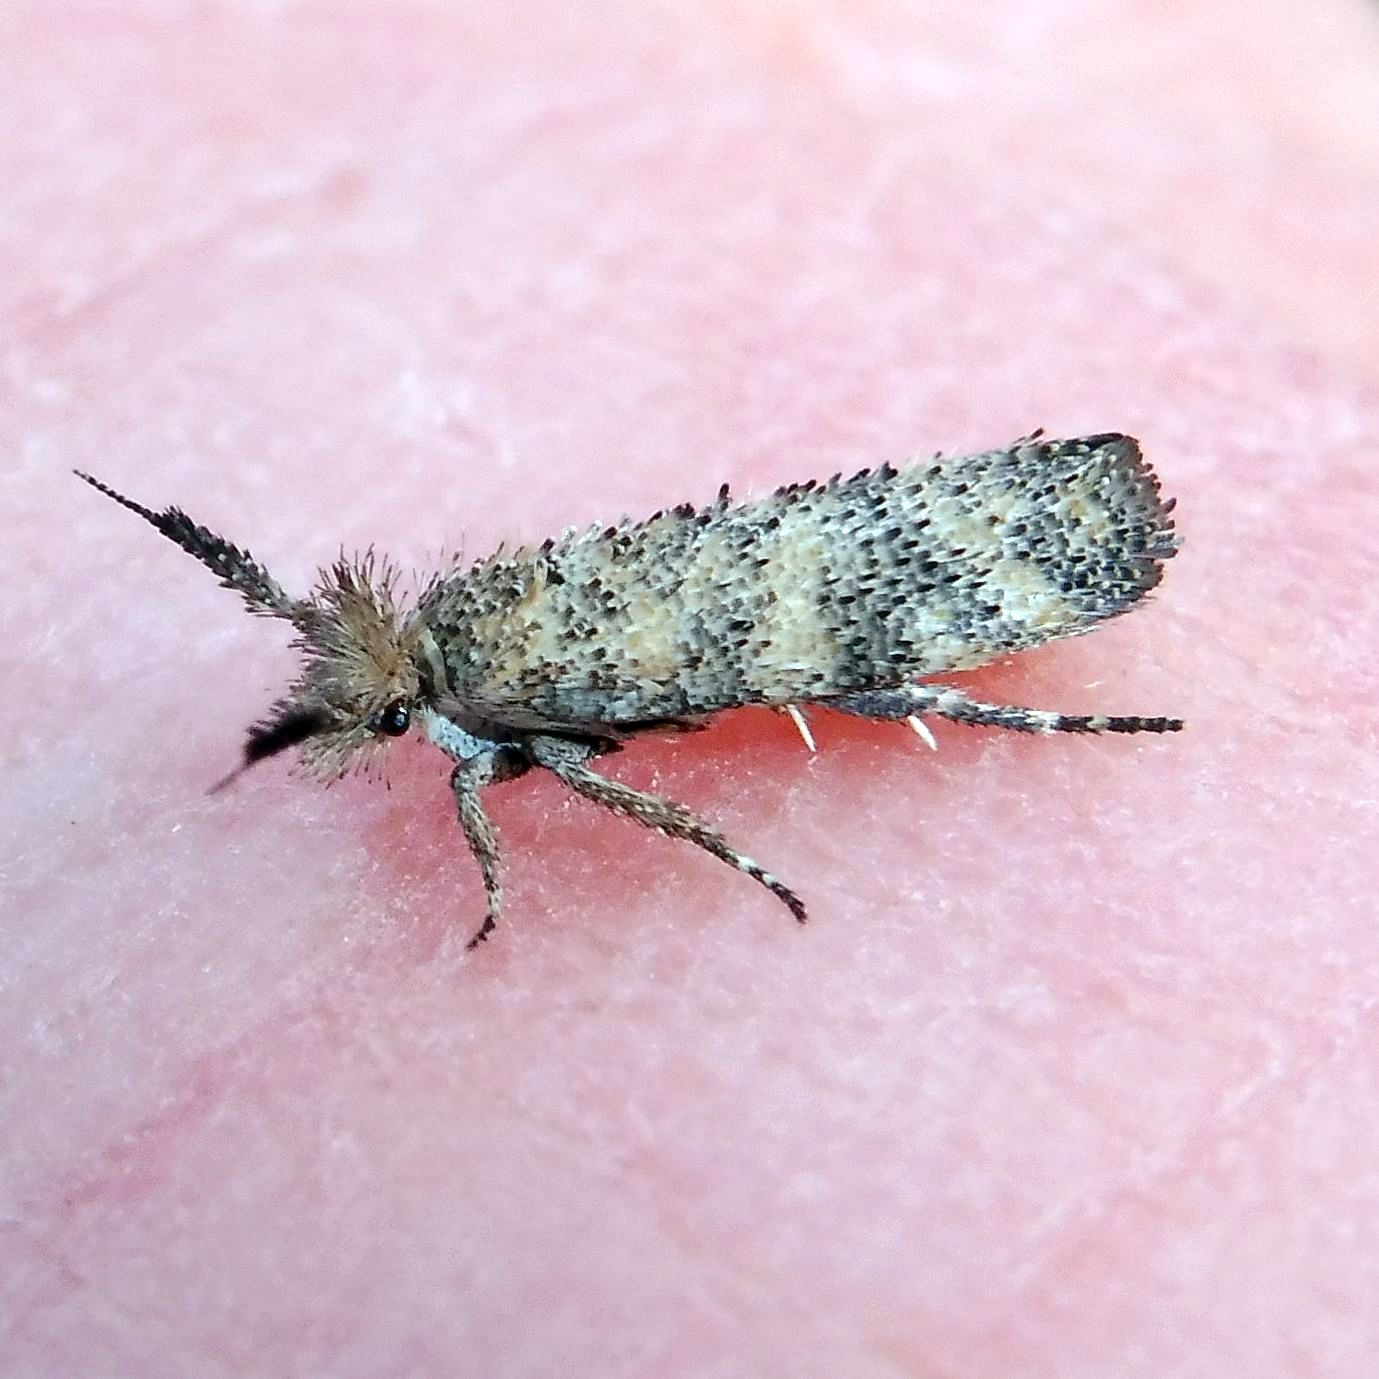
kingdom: Animalia
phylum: Arthropoda
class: Insecta
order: Lepidoptera
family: Ypsolophidae
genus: Ochsenheimeria
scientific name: Ochsenheimeria taurella
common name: Feathered stem-moth
